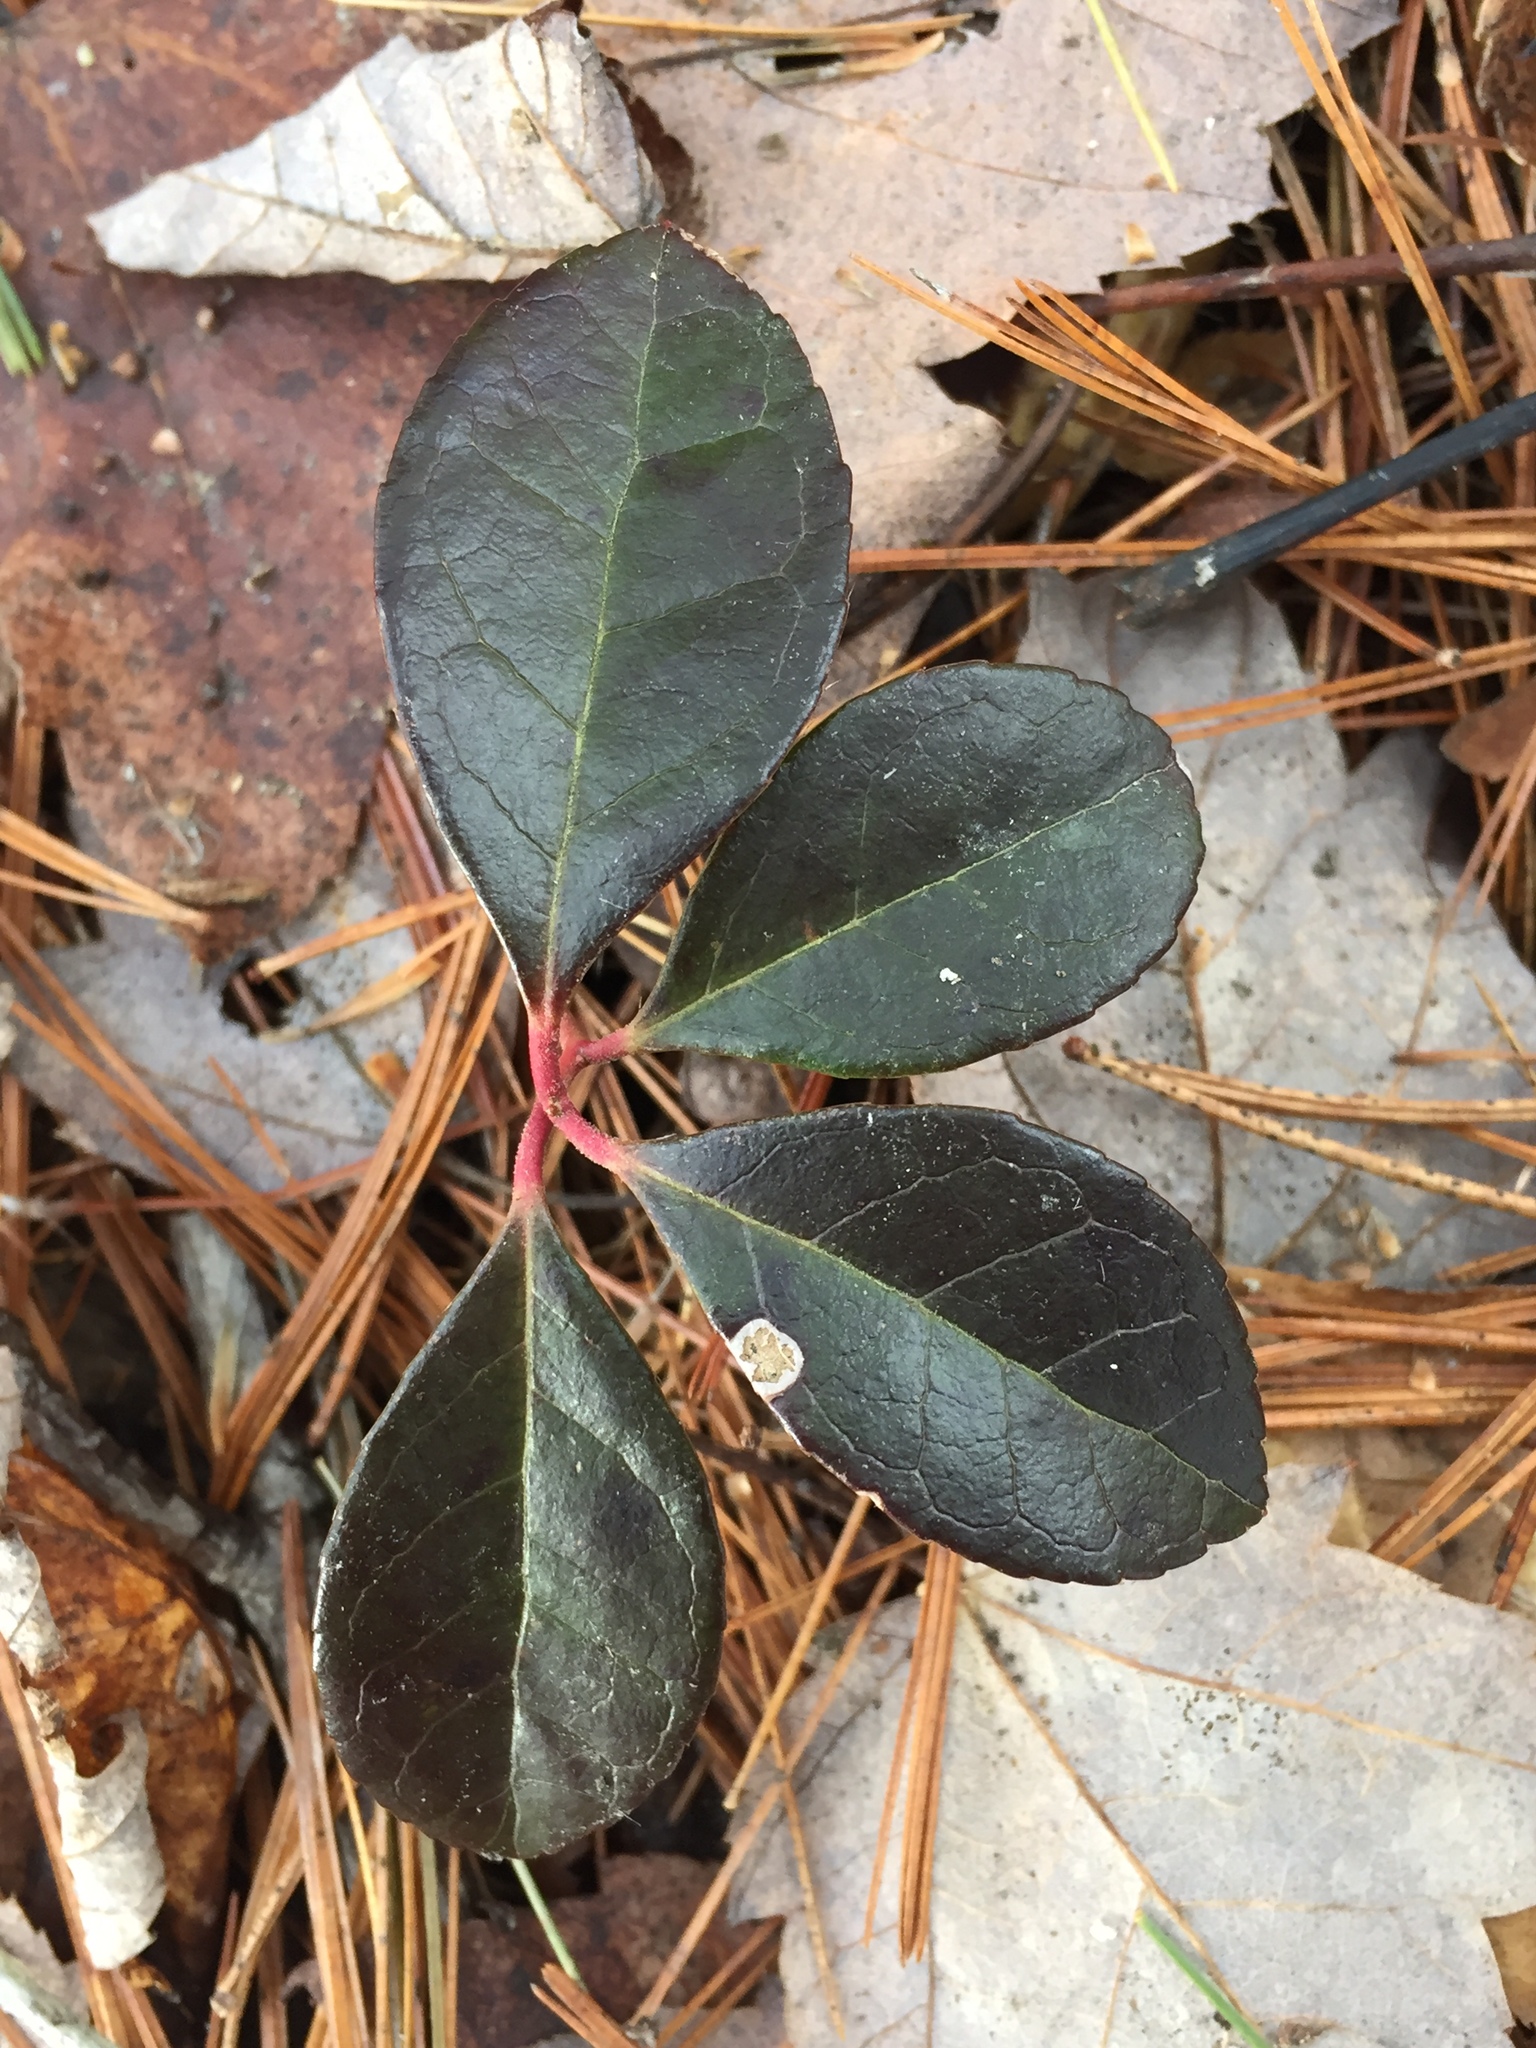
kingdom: Plantae
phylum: Tracheophyta
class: Magnoliopsida
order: Ericales
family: Ericaceae
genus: Gaultheria
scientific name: Gaultheria procumbens
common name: Checkerberry
